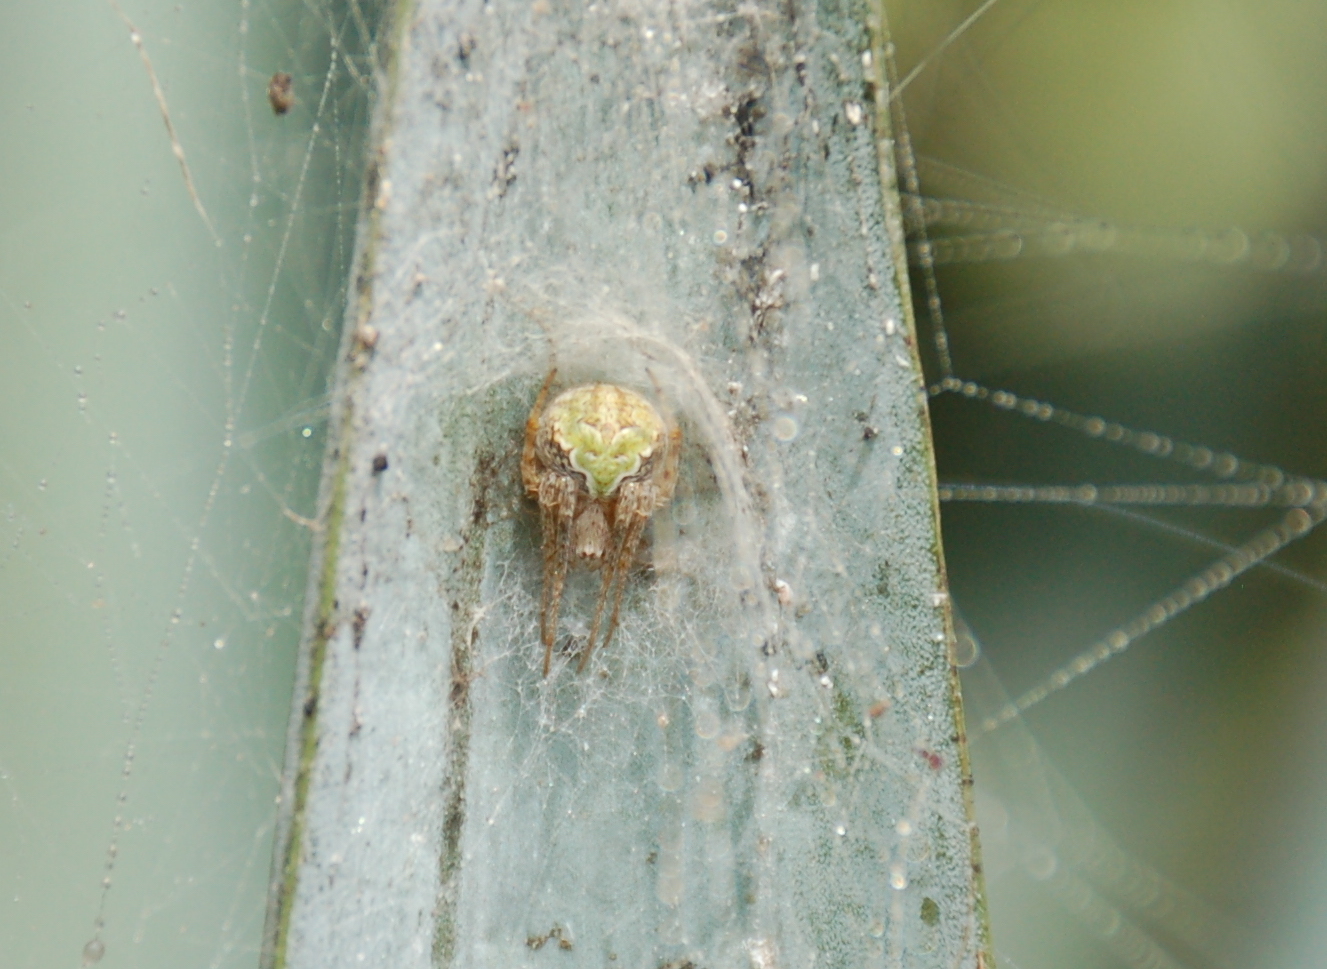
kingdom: Animalia
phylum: Arthropoda
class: Arachnida
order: Araneae
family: Araneidae
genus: Araneus
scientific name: Araneus detrimentosus
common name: Orb weavers
